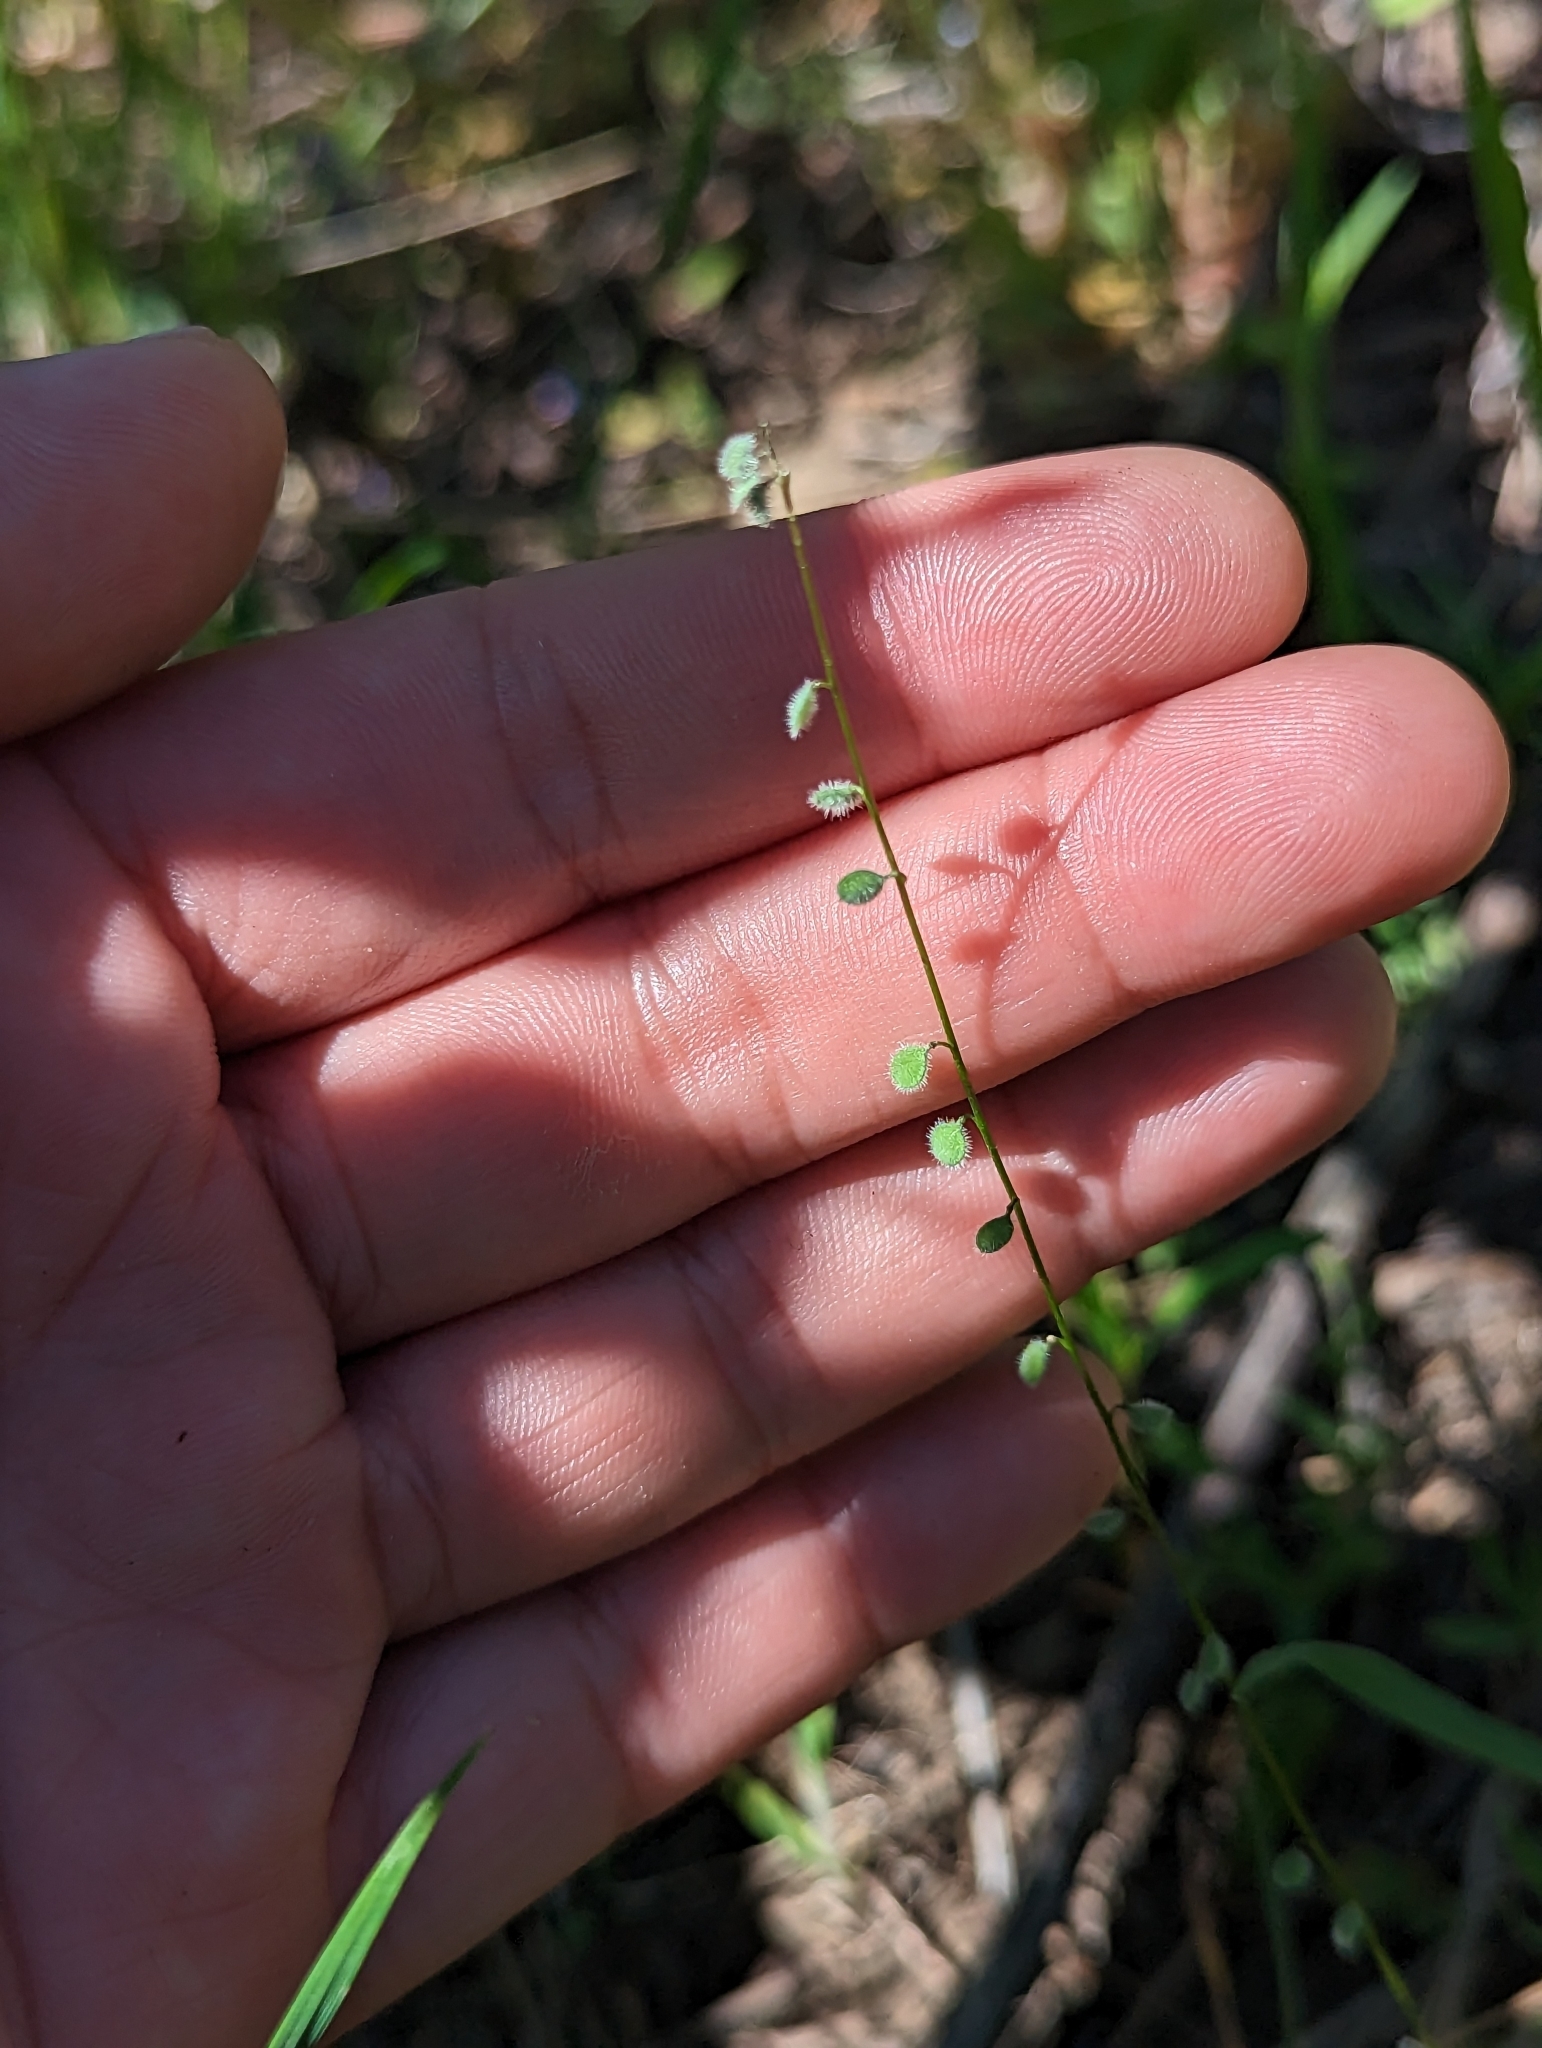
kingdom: Plantae
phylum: Tracheophyta
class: Magnoliopsida
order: Brassicales
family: Brassicaceae
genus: Athysanus
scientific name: Athysanus pusillus
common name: Common sandweed
